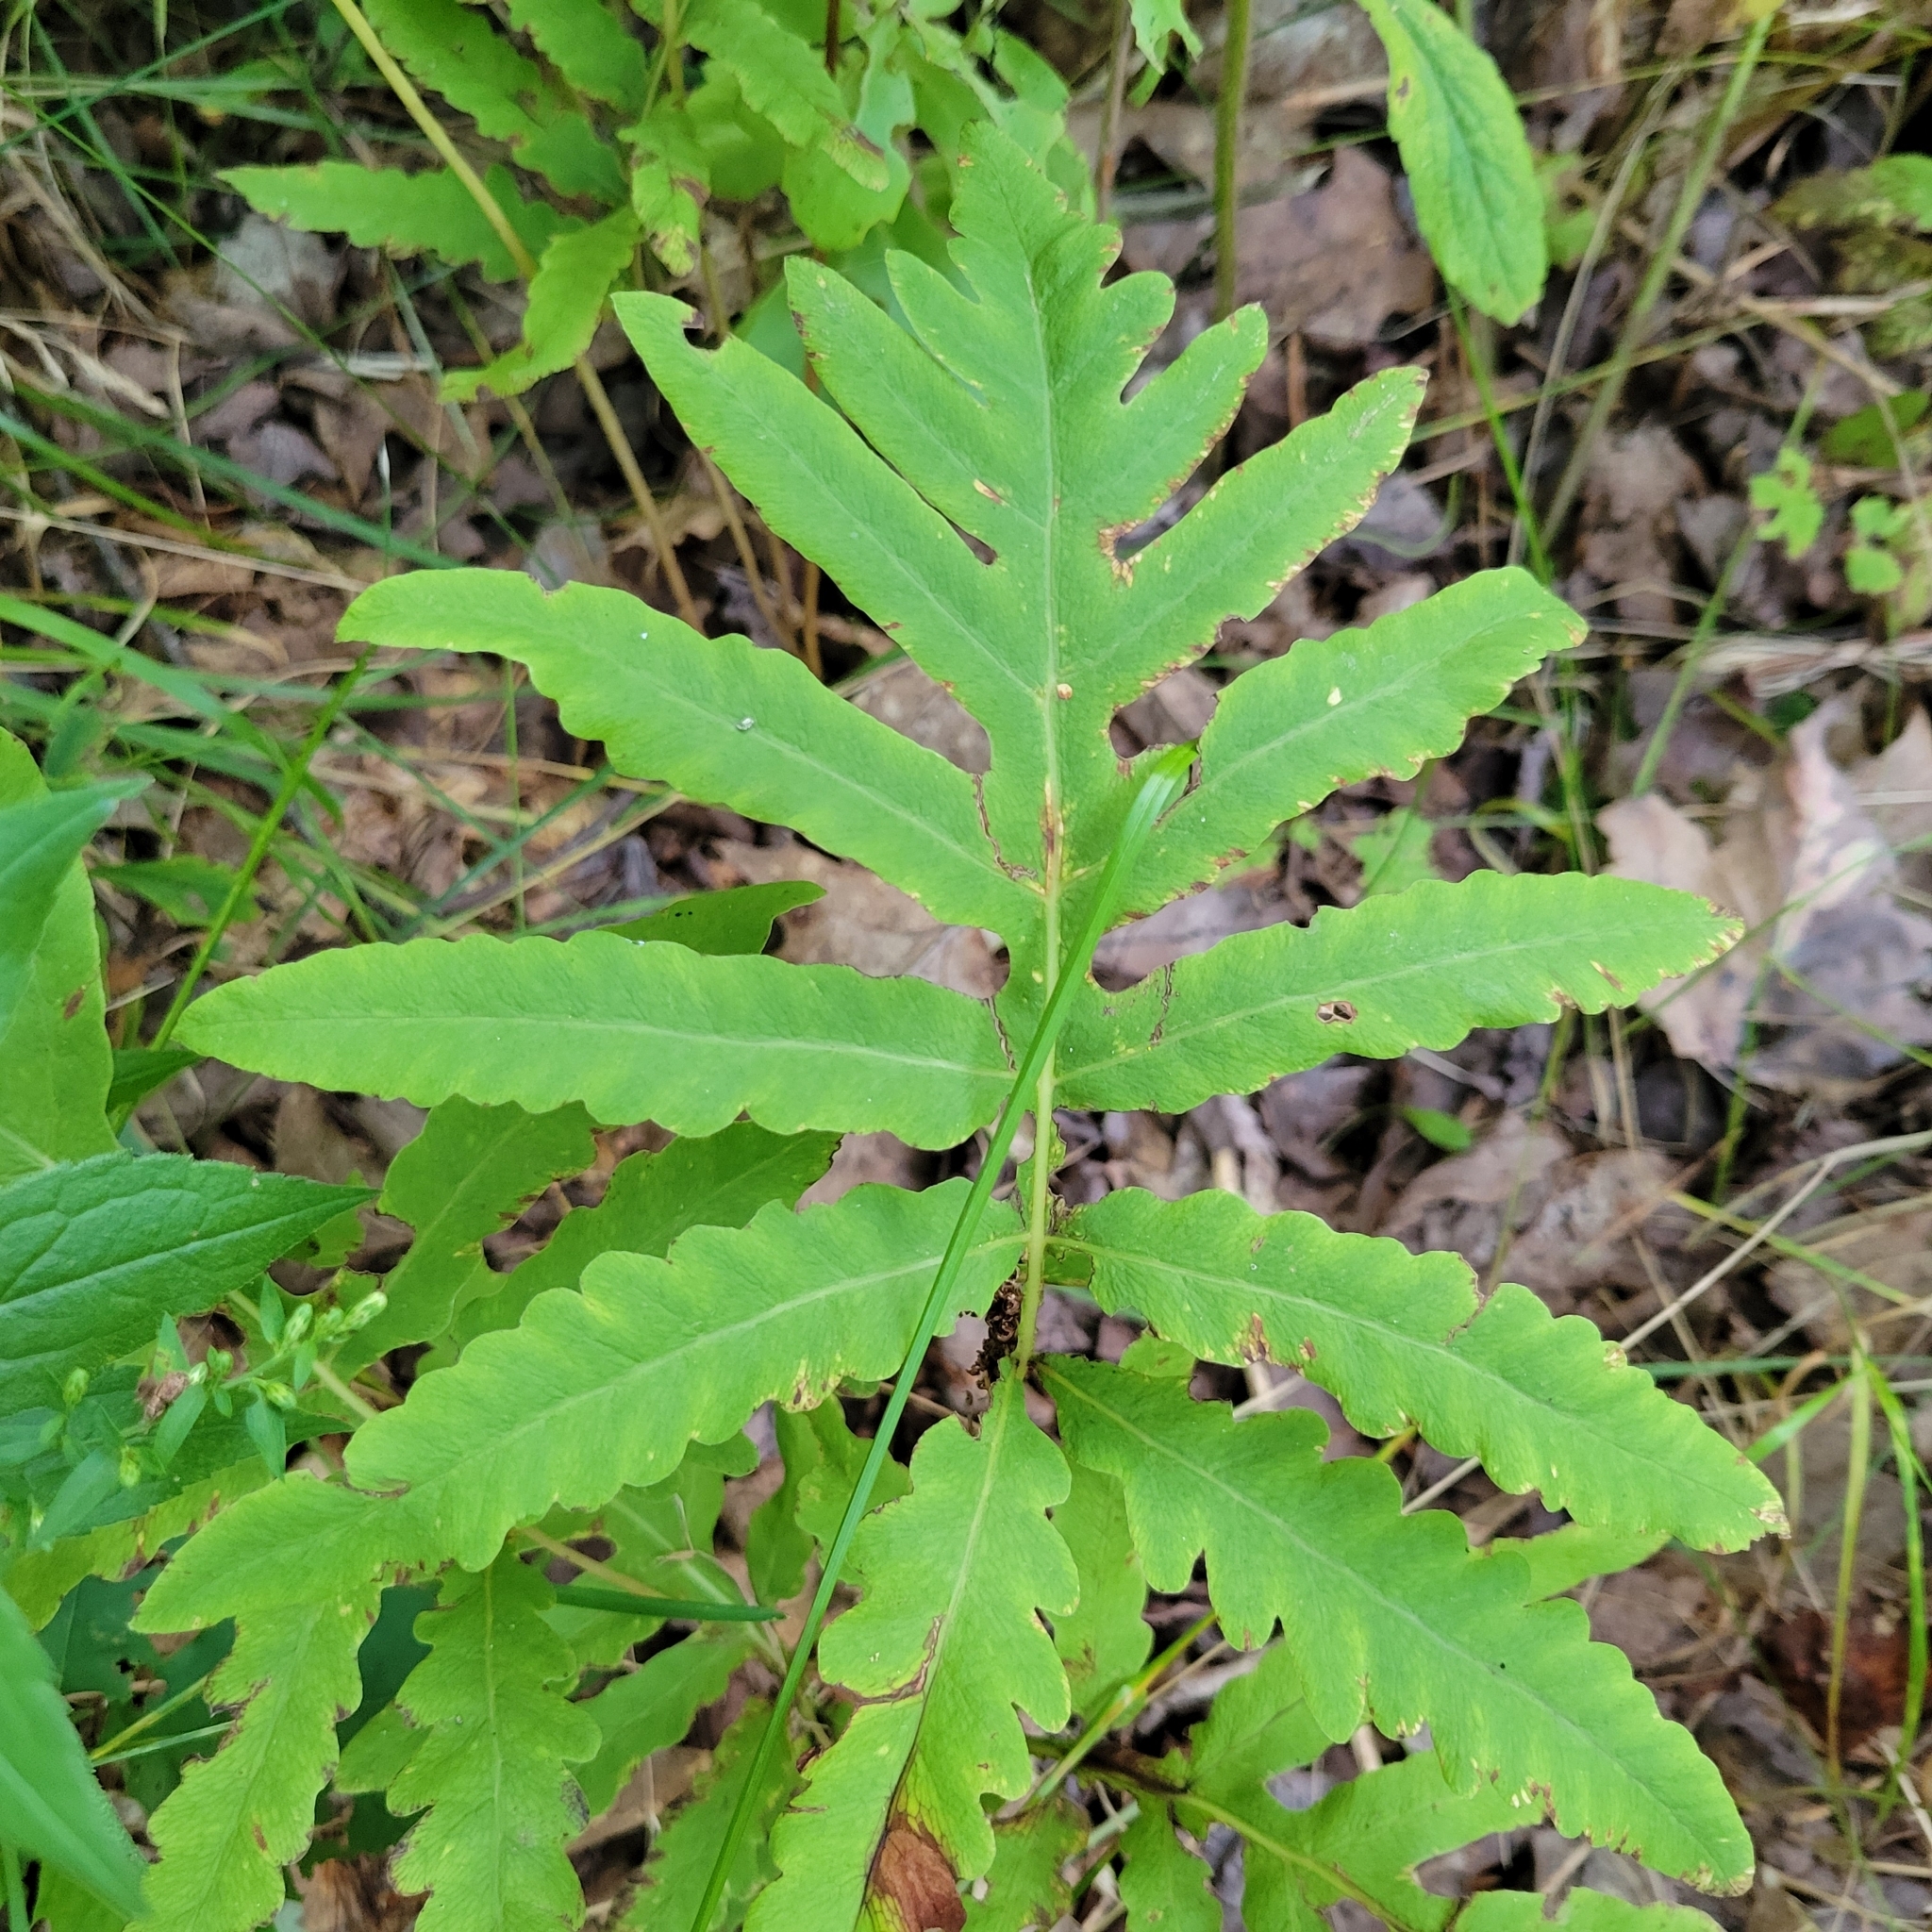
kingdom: Plantae
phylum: Tracheophyta
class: Polypodiopsida
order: Polypodiales
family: Onocleaceae
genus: Onoclea
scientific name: Onoclea sensibilis
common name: Sensitive fern
